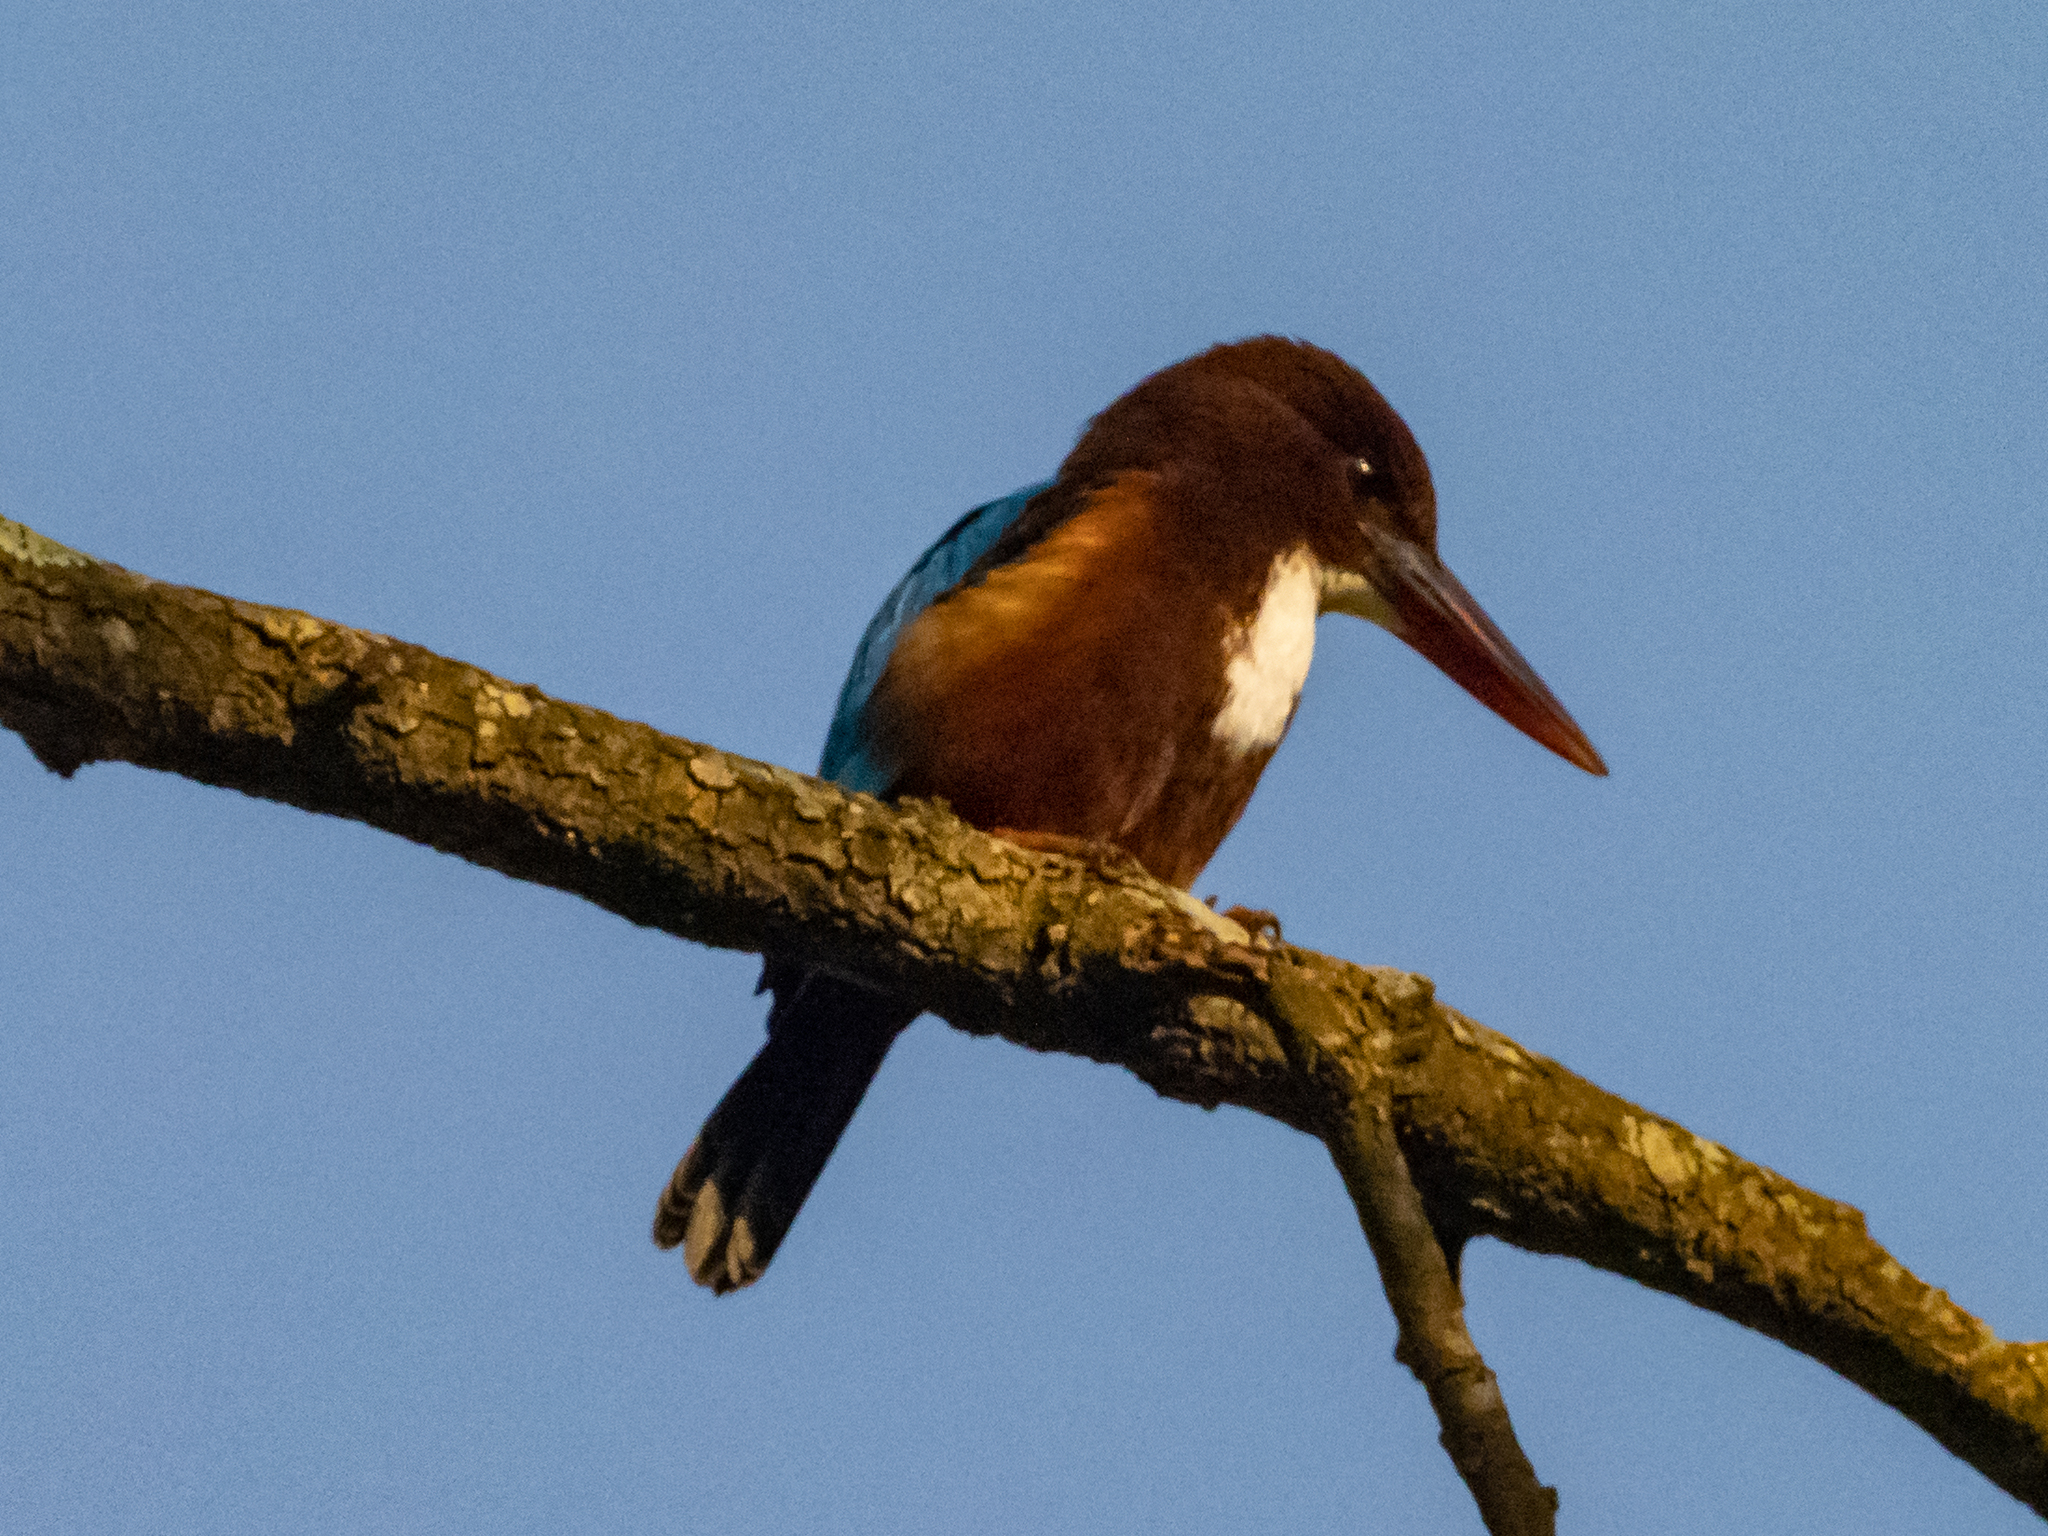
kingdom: Animalia
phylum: Chordata
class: Aves
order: Coraciiformes
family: Alcedinidae
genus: Halcyon
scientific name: Halcyon smyrnensis
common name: White-throated kingfisher
